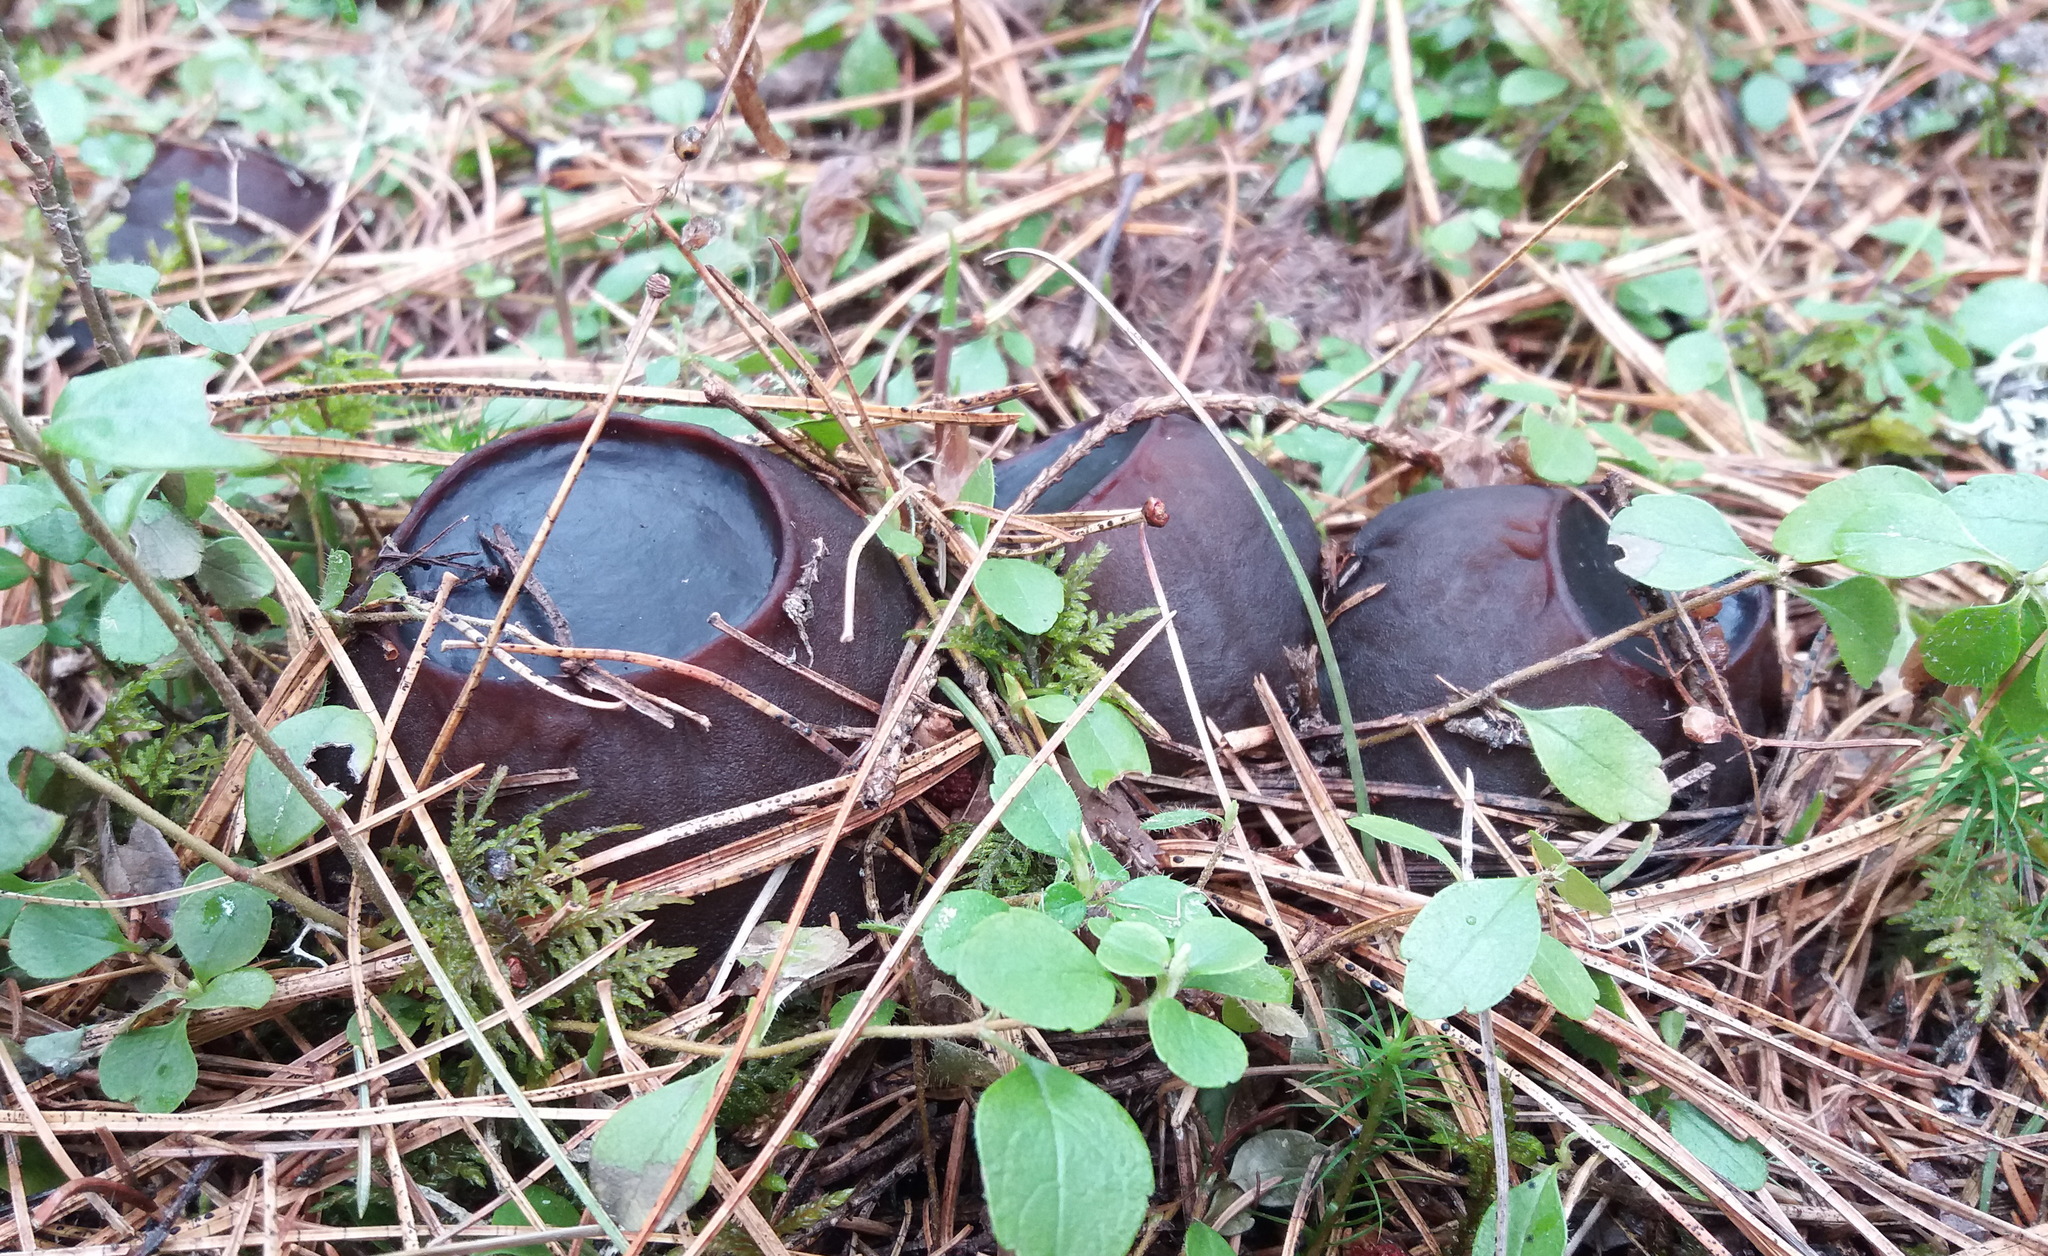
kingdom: Fungi
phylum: Ascomycota
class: Pezizomycetes
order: Pezizales
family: Sarcosomataceae
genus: Sarcosoma
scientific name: Sarcosoma globosum
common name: Charred-pancake cup
